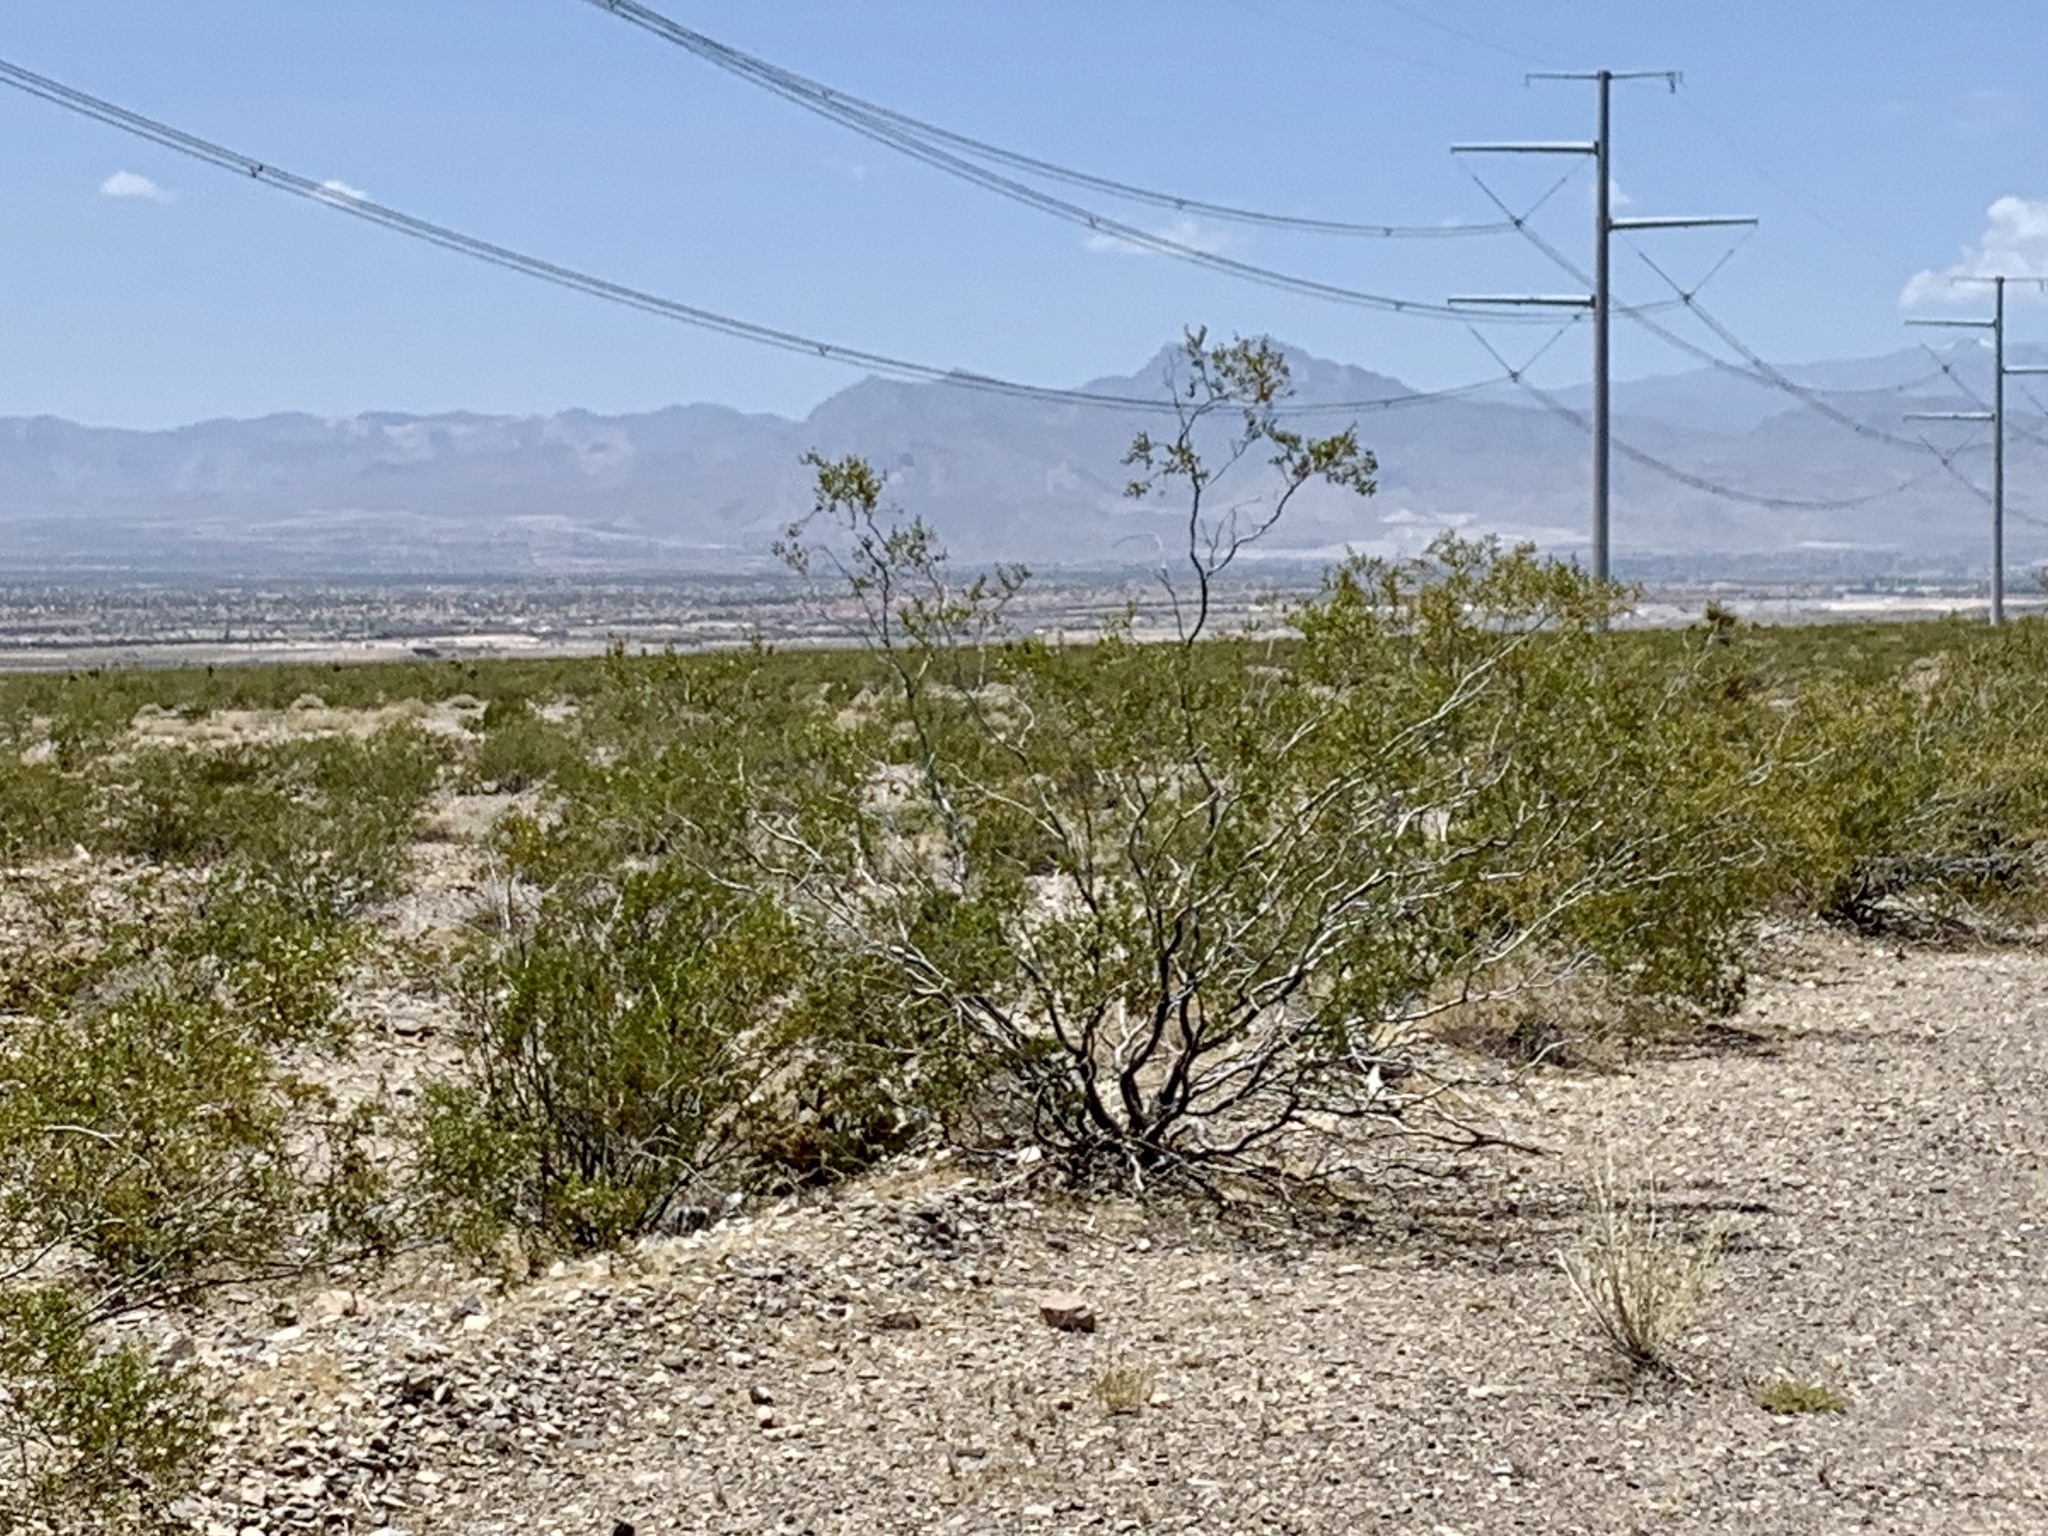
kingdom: Plantae
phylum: Tracheophyta
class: Magnoliopsida
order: Zygophyllales
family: Zygophyllaceae
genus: Larrea
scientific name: Larrea tridentata
